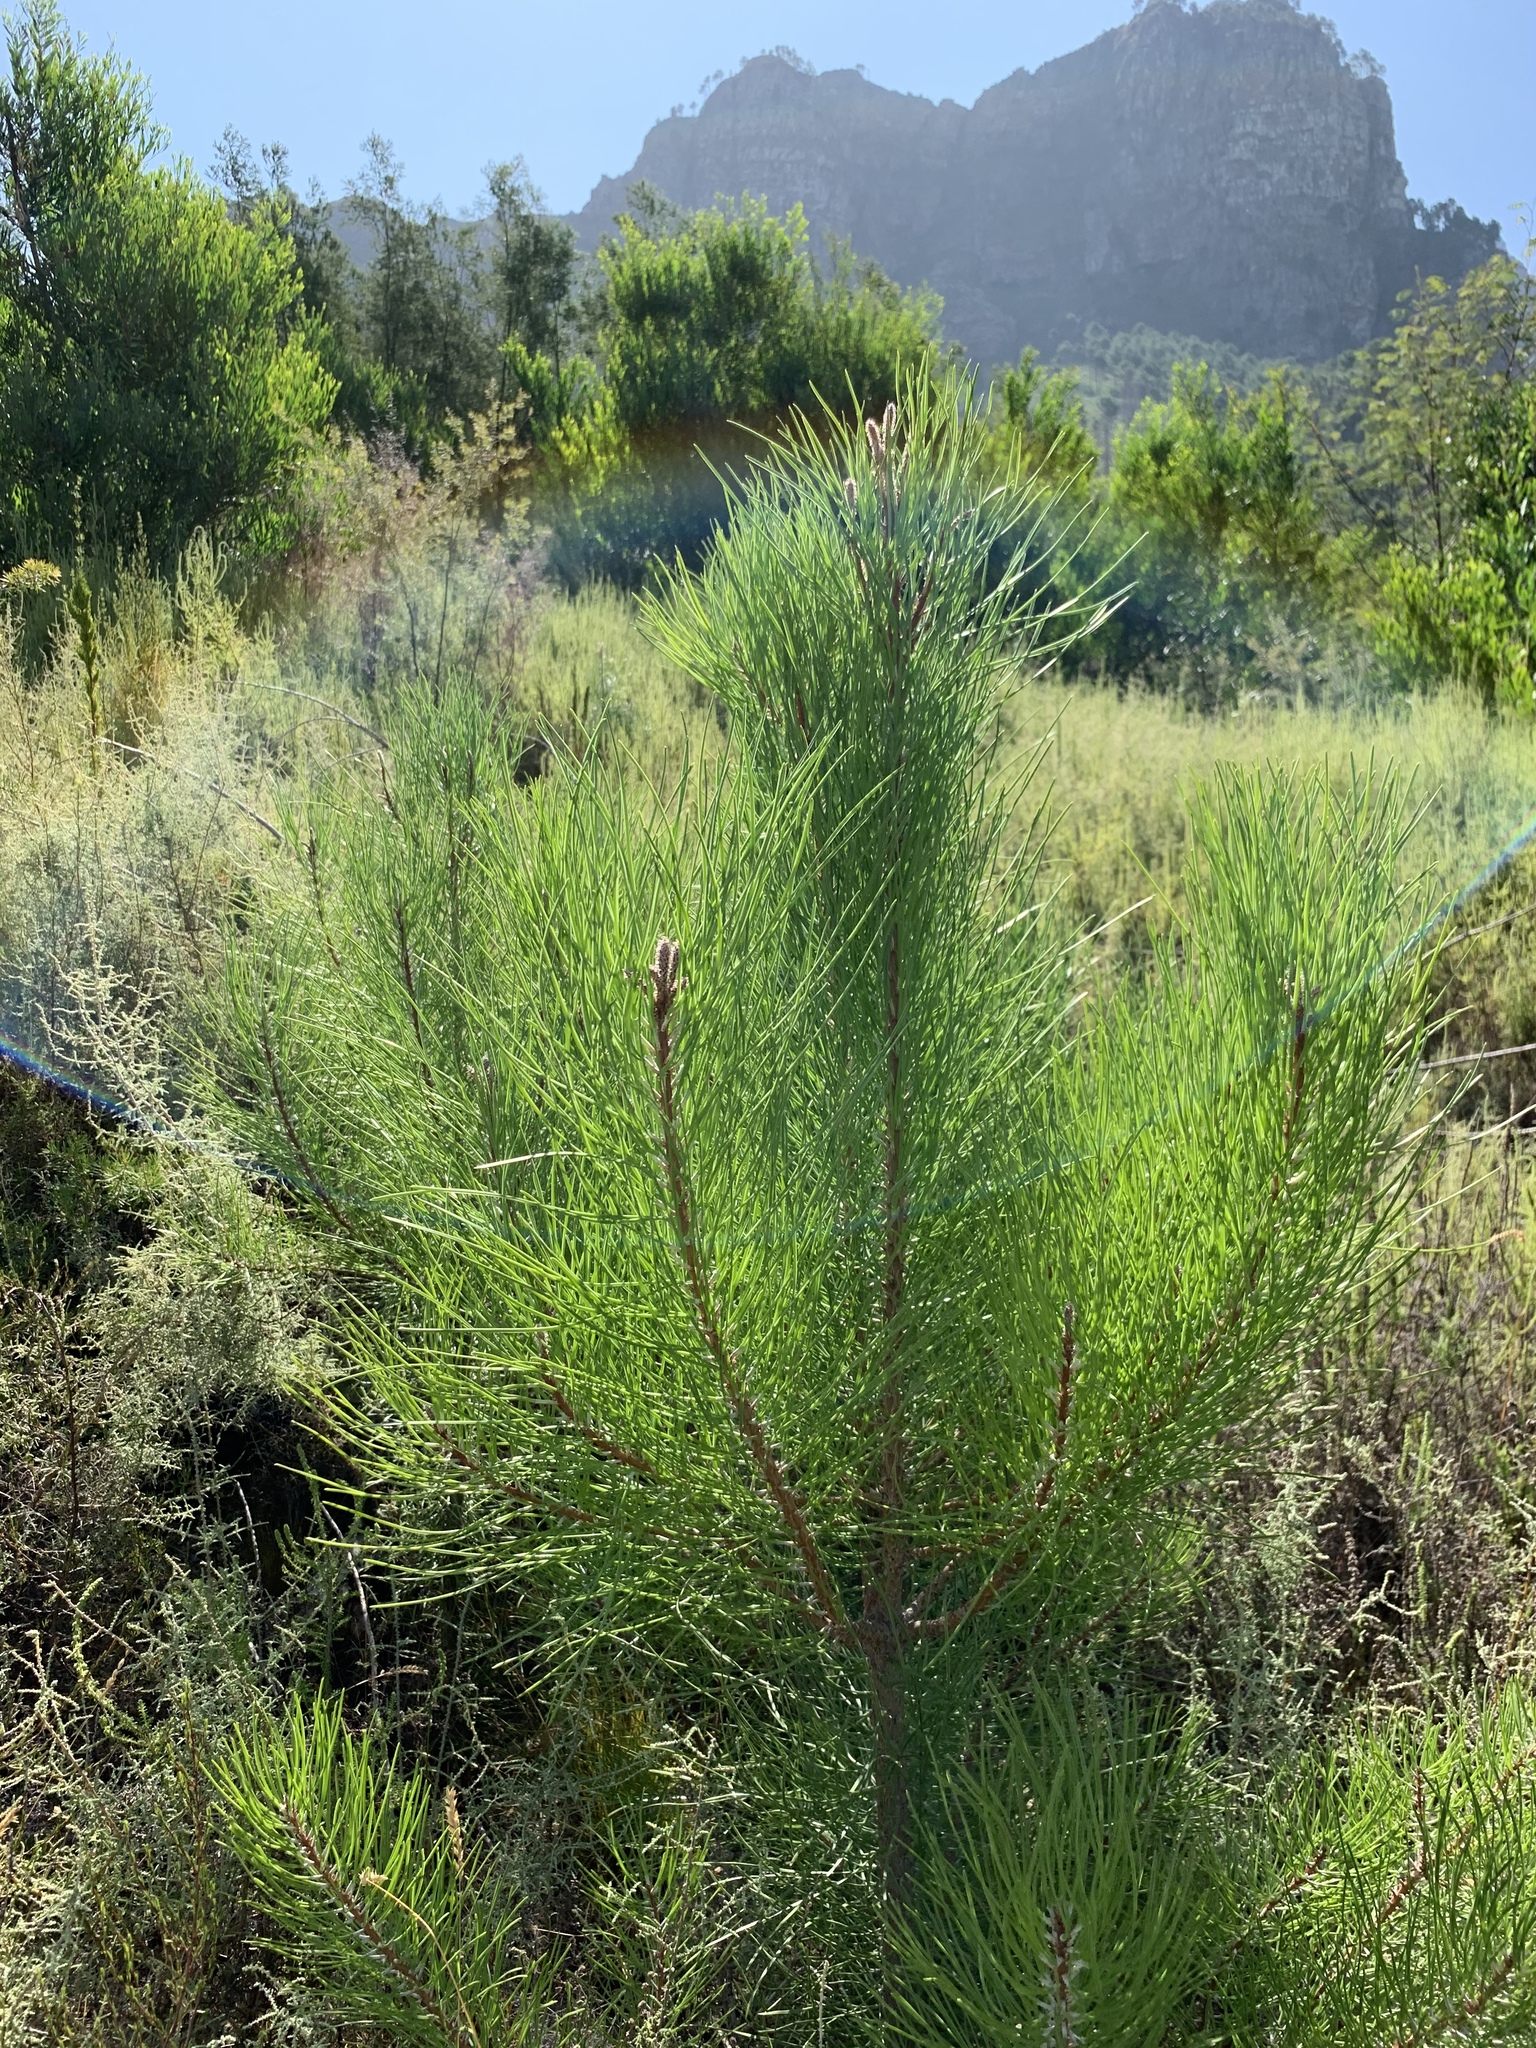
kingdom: Plantae
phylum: Tracheophyta
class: Pinopsida
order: Pinales
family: Pinaceae
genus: Pinus
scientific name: Pinus pinaster
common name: Maritime pine
